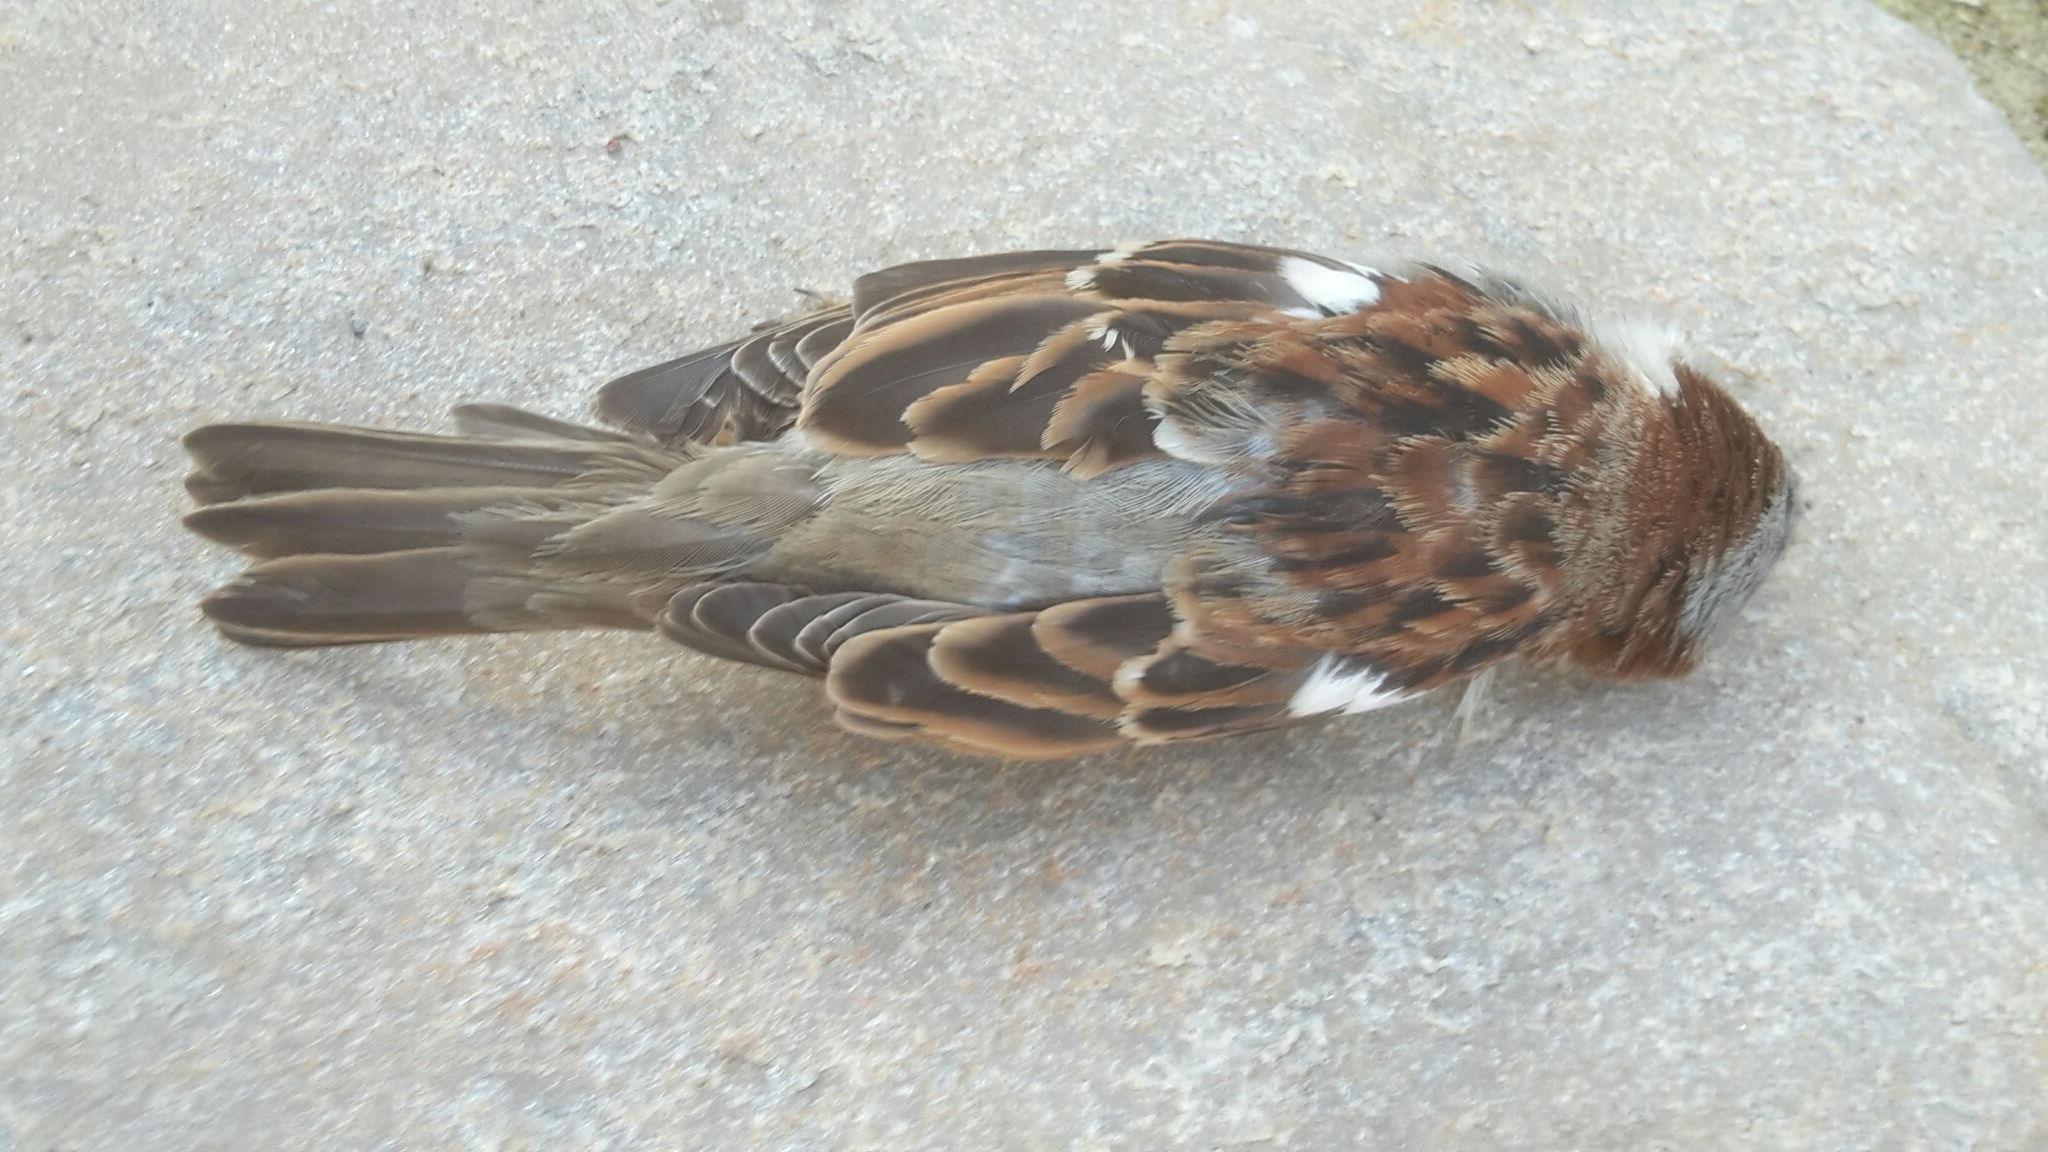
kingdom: Animalia
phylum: Chordata
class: Aves
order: Passeriformes
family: Passeridae
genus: Passer
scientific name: Passer domesticus
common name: House sparrow
